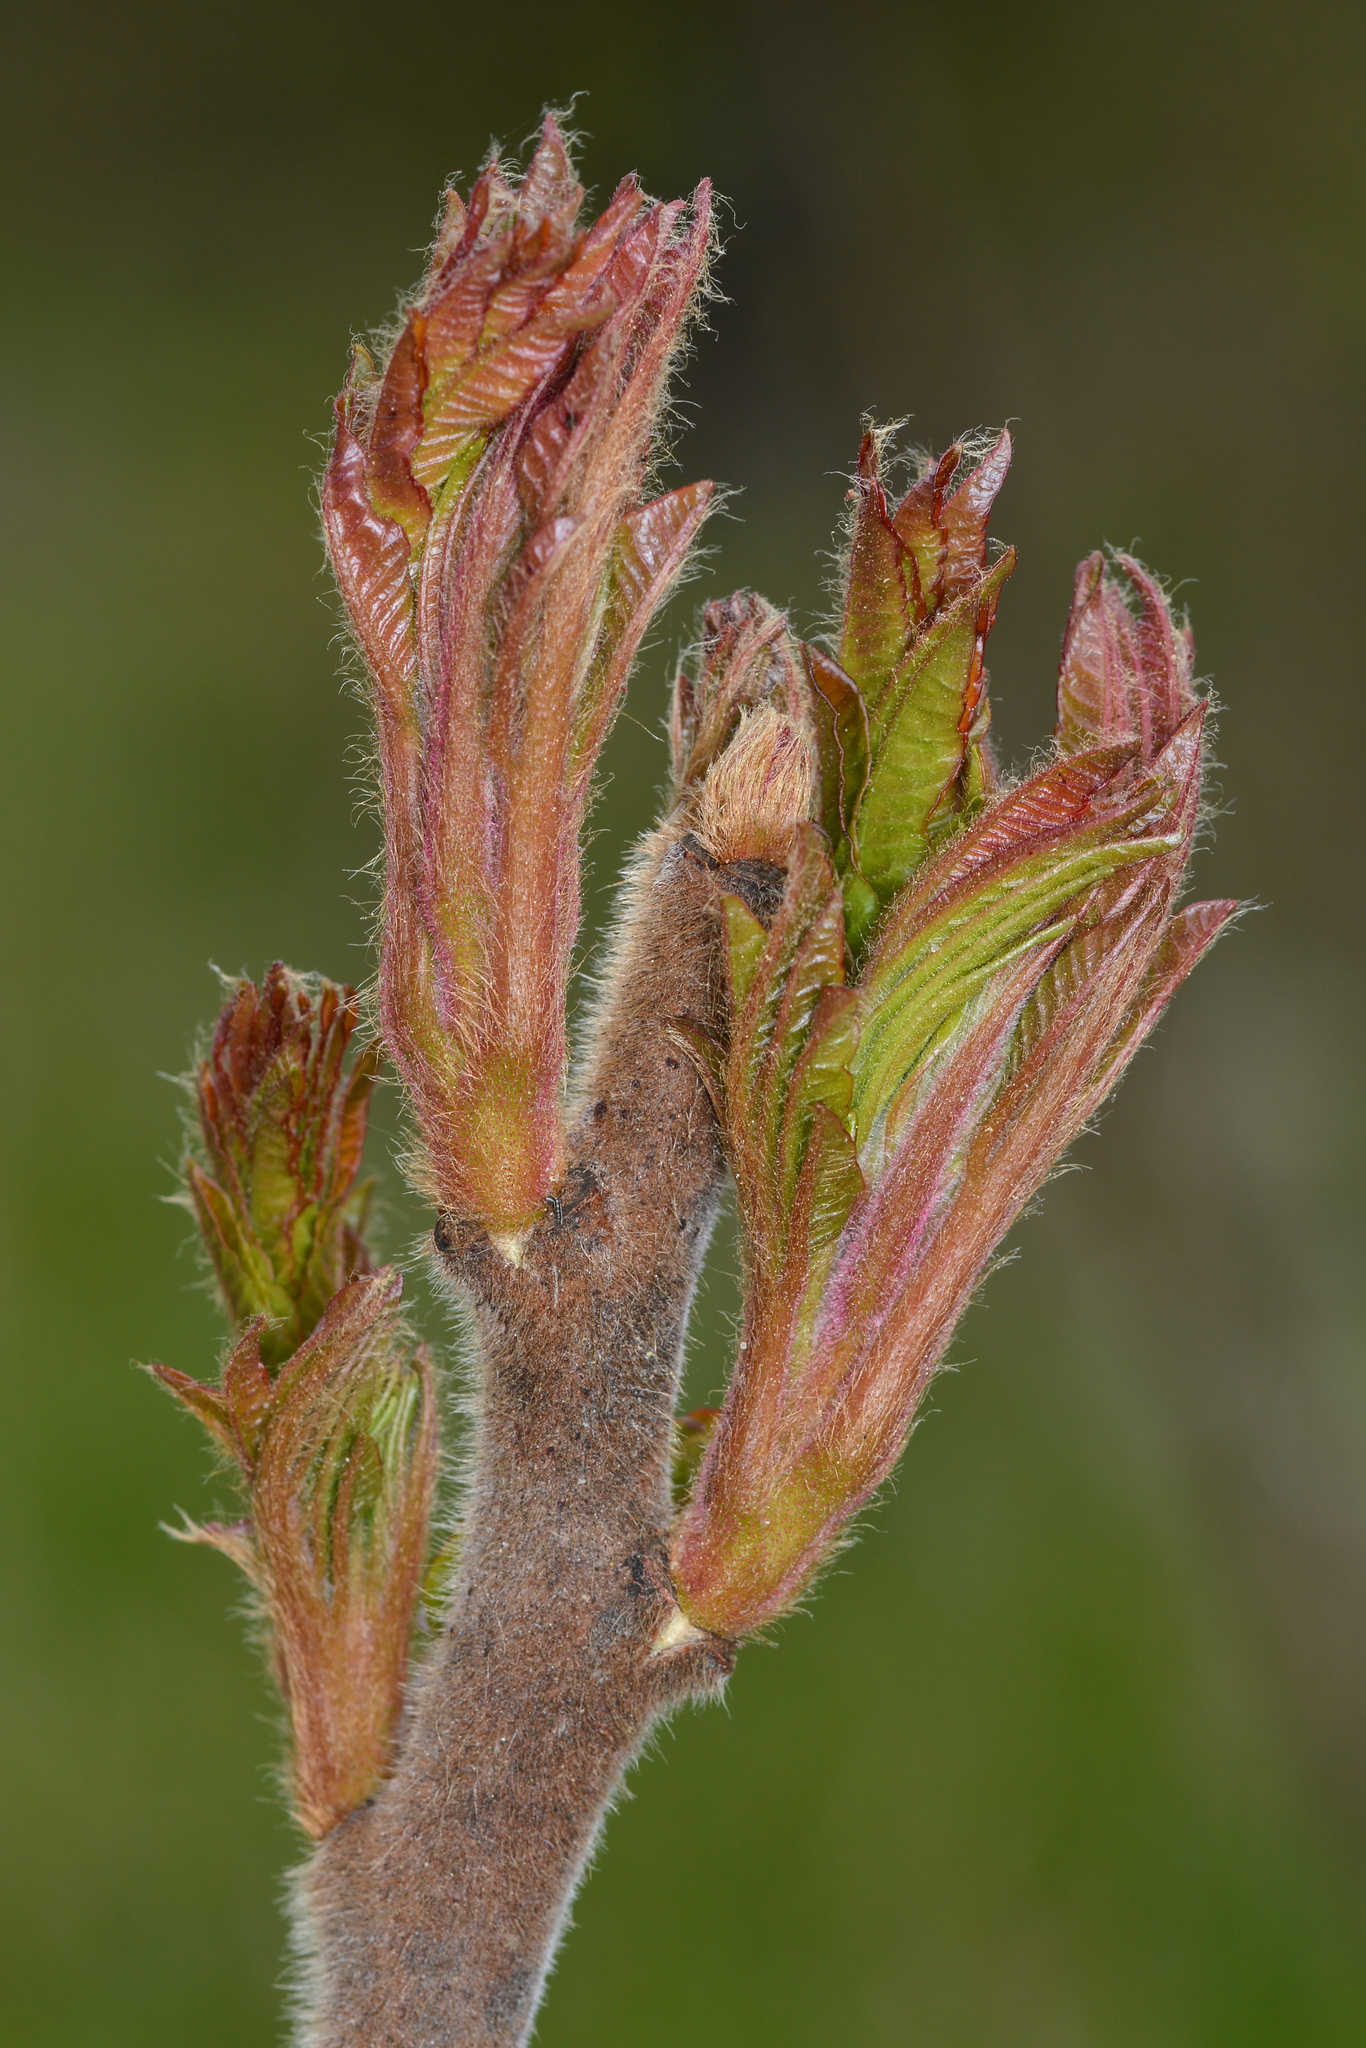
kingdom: Plantae
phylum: Tracheophyta
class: Magnoliopsida
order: Sapindales
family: Anacardiaceae
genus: Rhus
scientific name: Rhus typhina
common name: Staghorn sumac
